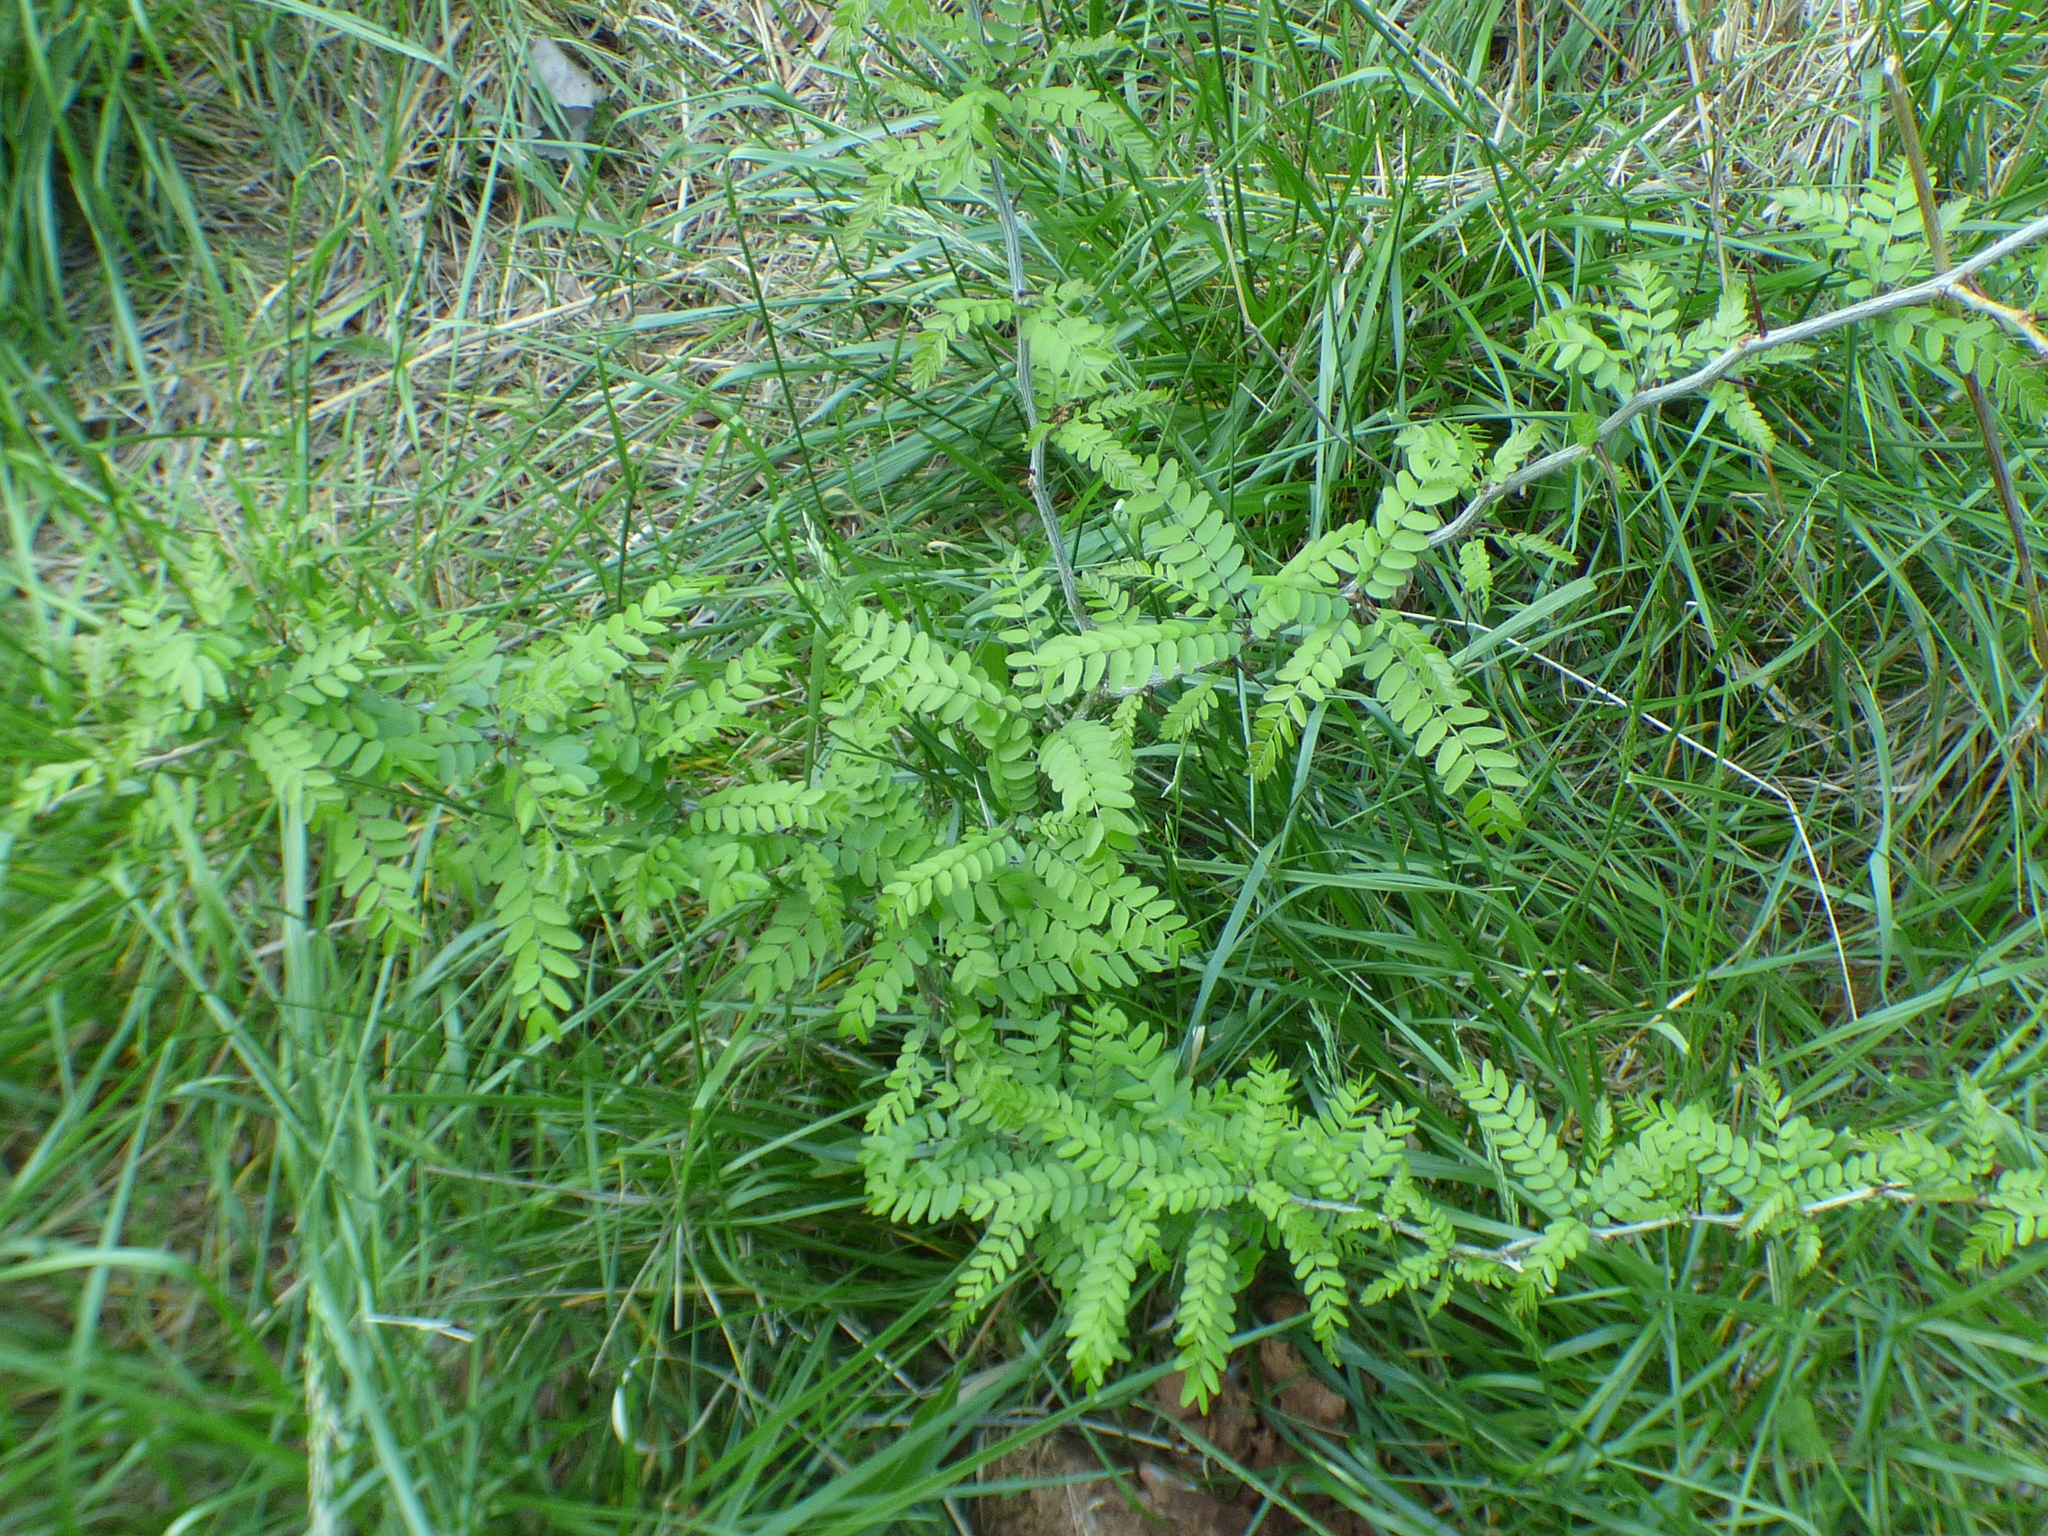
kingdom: Plantae
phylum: Tracheophyta
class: Magnoliopsida
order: Fabales
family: Fabaceae
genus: Gleditsia
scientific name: Gleditsia triacanthos
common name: Common honeylocust
